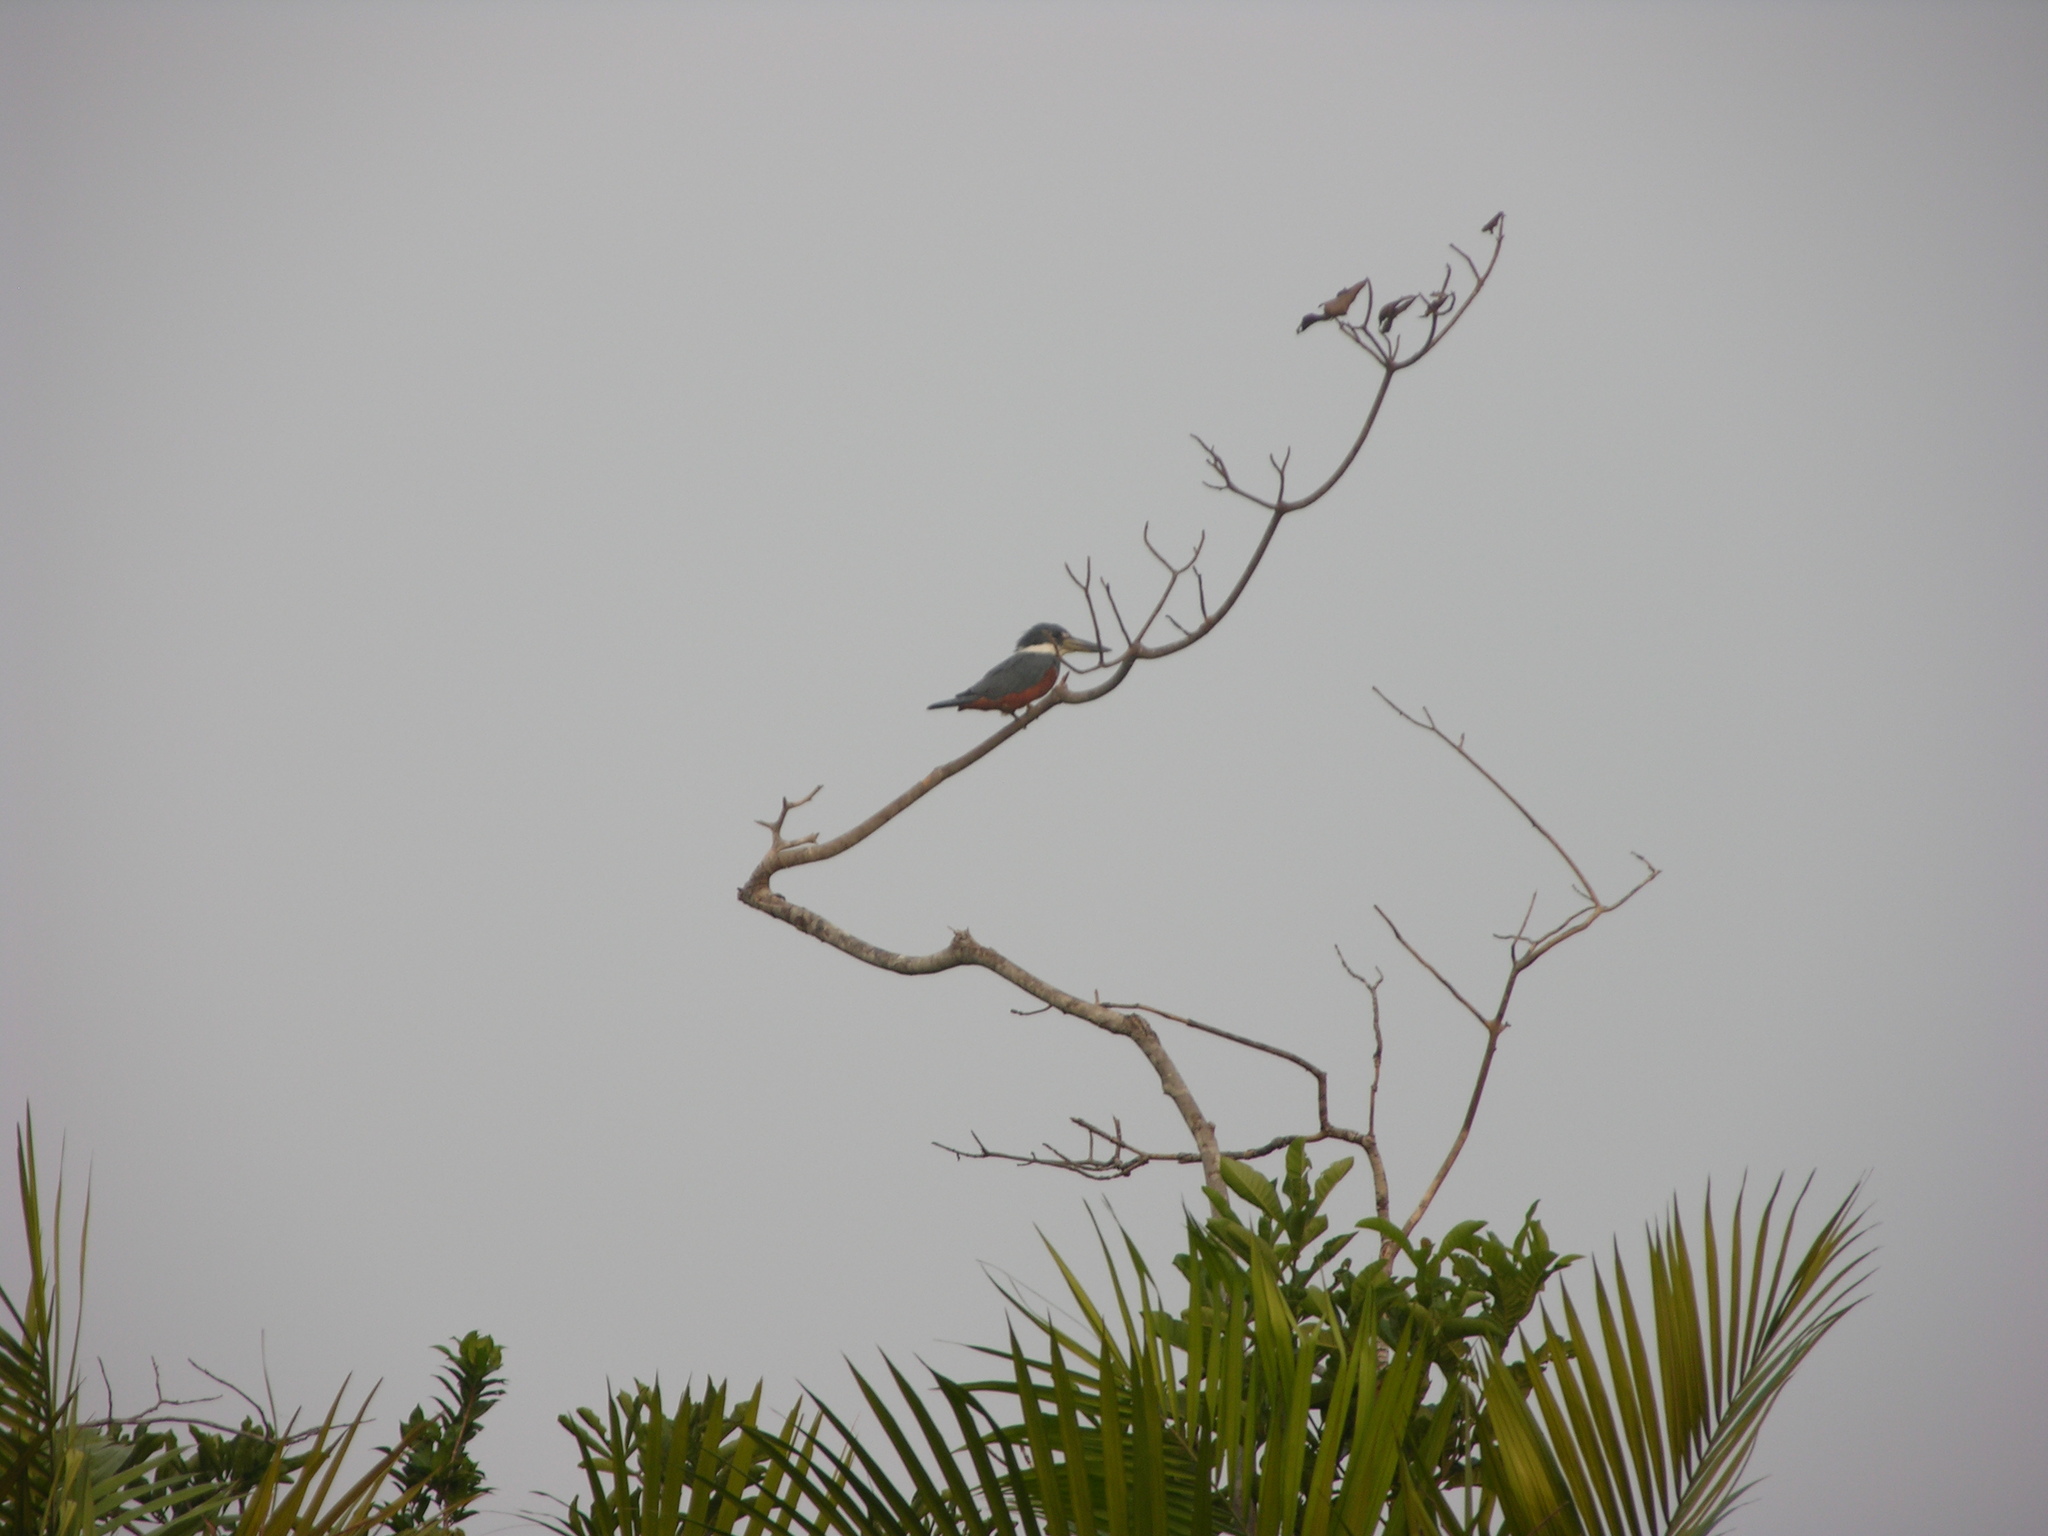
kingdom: Animalia
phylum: Chordata
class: Aves
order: Coraciiformes
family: Alcedinidae
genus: Megaceryle
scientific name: Megaceryle torquata
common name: Ringed kingfisher
